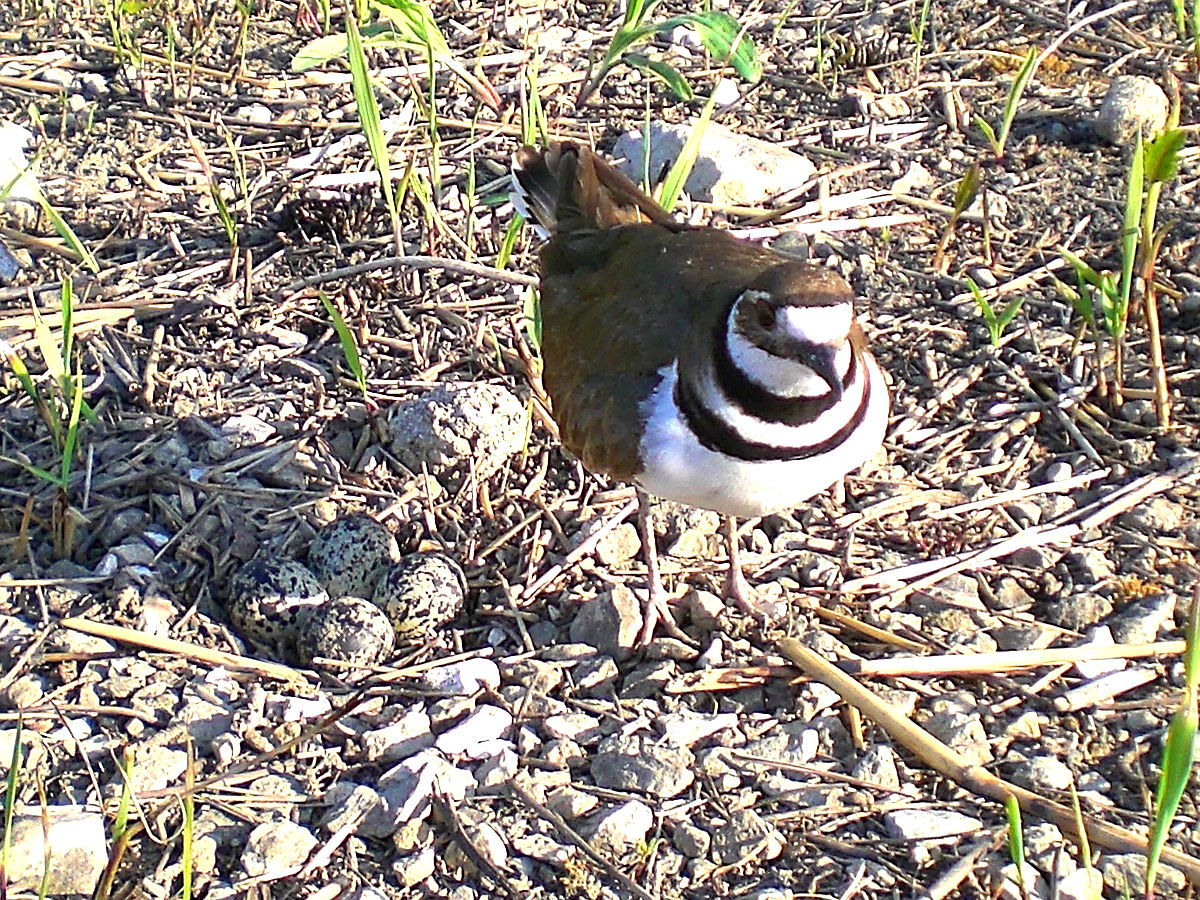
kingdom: Animalia
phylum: Chordata
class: Aves
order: Charadriiformes
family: Charadriidae
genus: Charadrius
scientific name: Charadrius vociferus
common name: Killdeer
